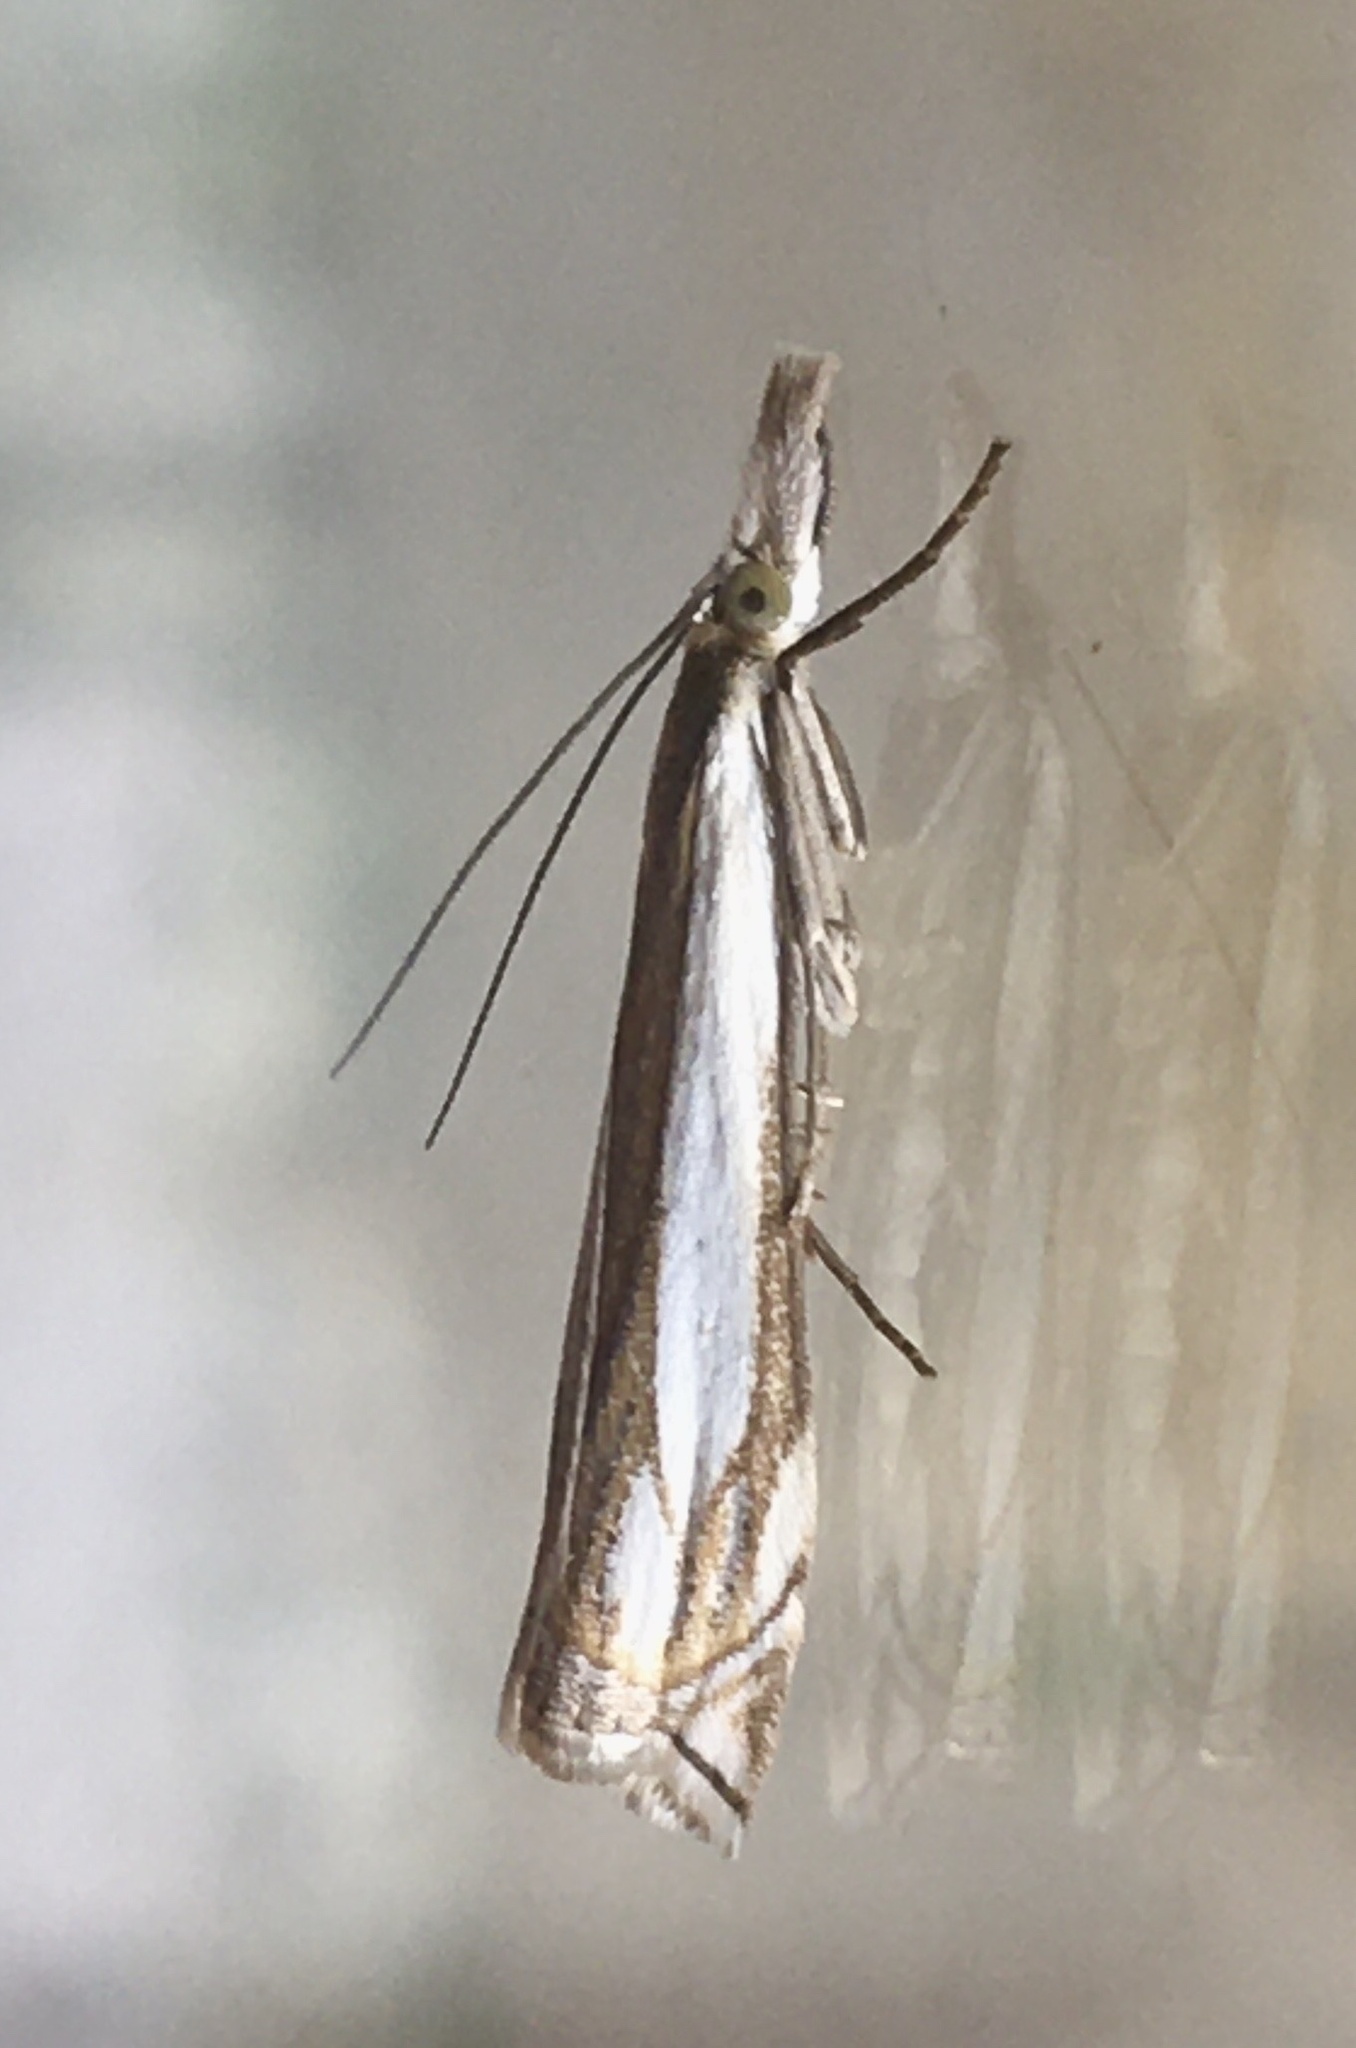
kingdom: Animalia
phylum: Arthropoda
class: Insecta
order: Lepidoptera
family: Crambidae
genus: Crambus
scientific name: Crambus pascuella
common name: Inlaid grass-veneer
